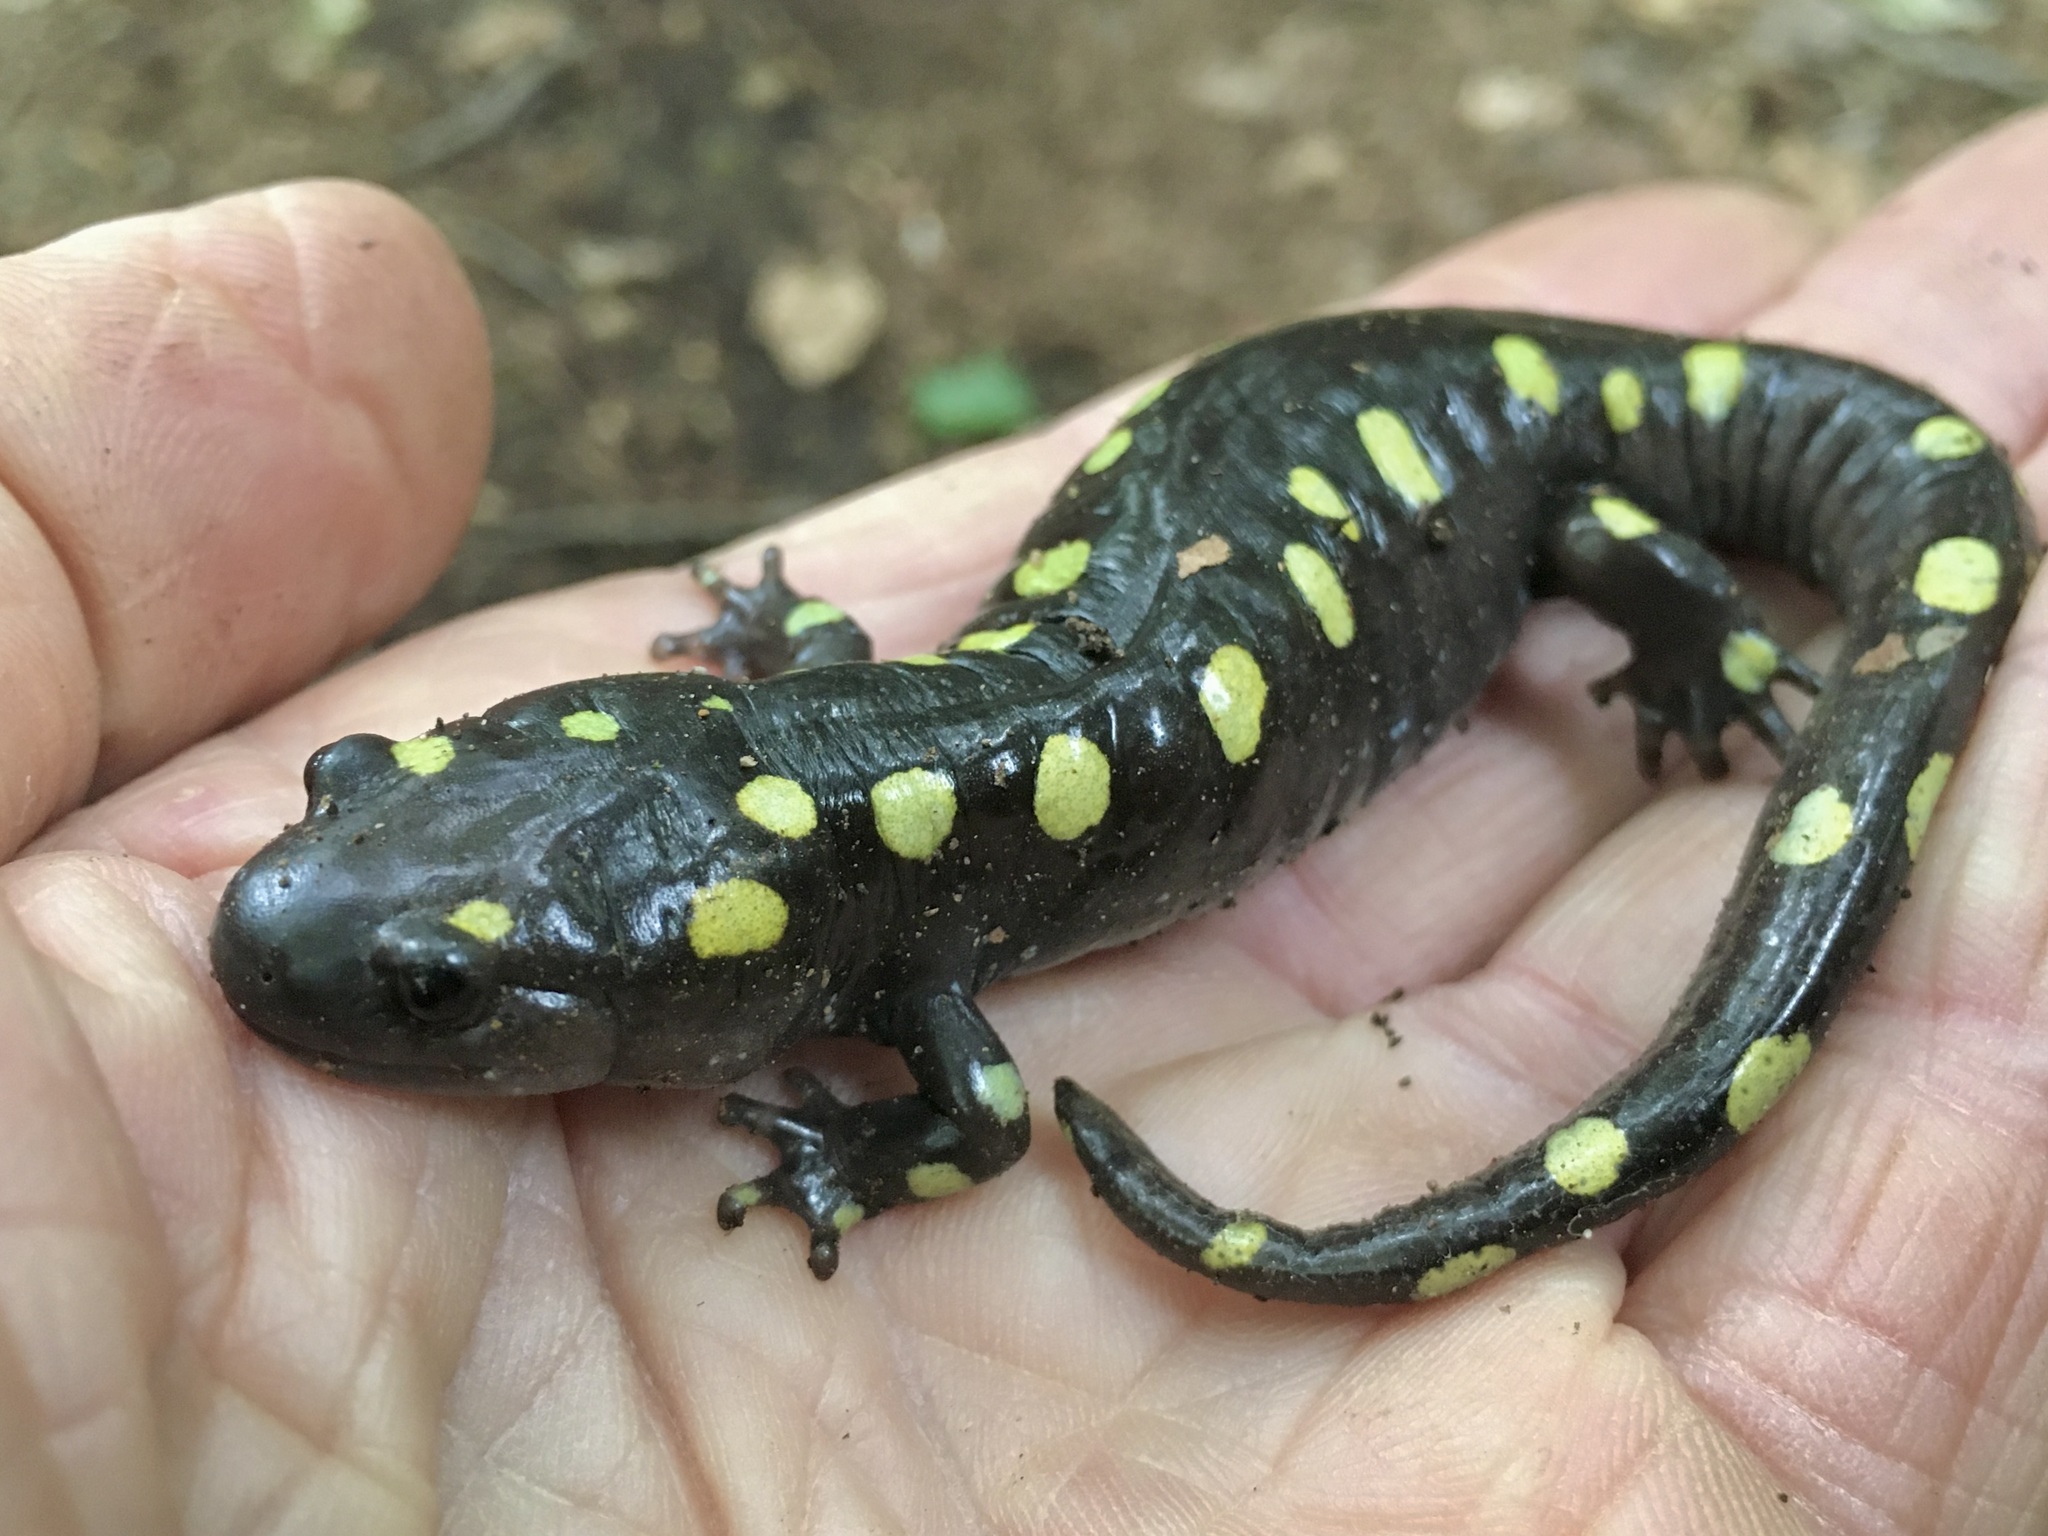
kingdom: Animalia
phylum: Chordata
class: Amphibia
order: Caudata
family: Ambystomatidae
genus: Ambystoma
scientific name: Ambystoma maculatum
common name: Spotted salamander
